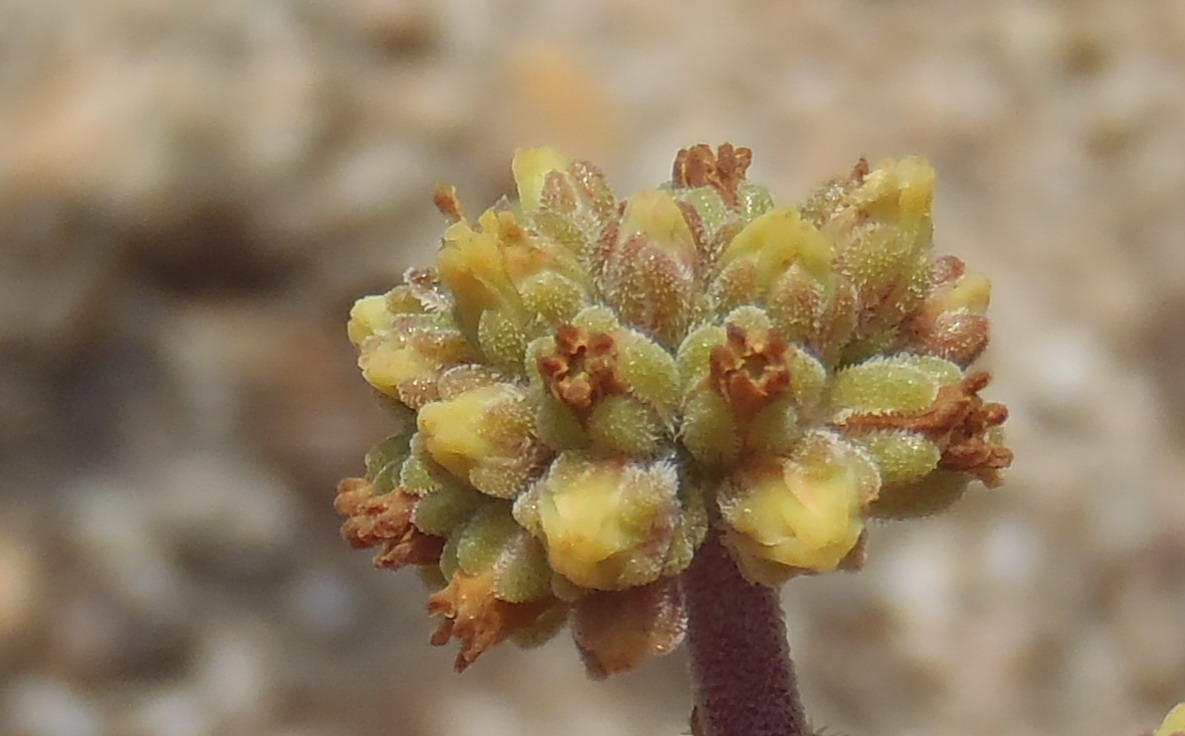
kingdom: Plantae
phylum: Tracheophyta
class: Magnoliopsida
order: Saxifragales
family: Crassulaceae
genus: Crassula
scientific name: Crassula cotyledonis
